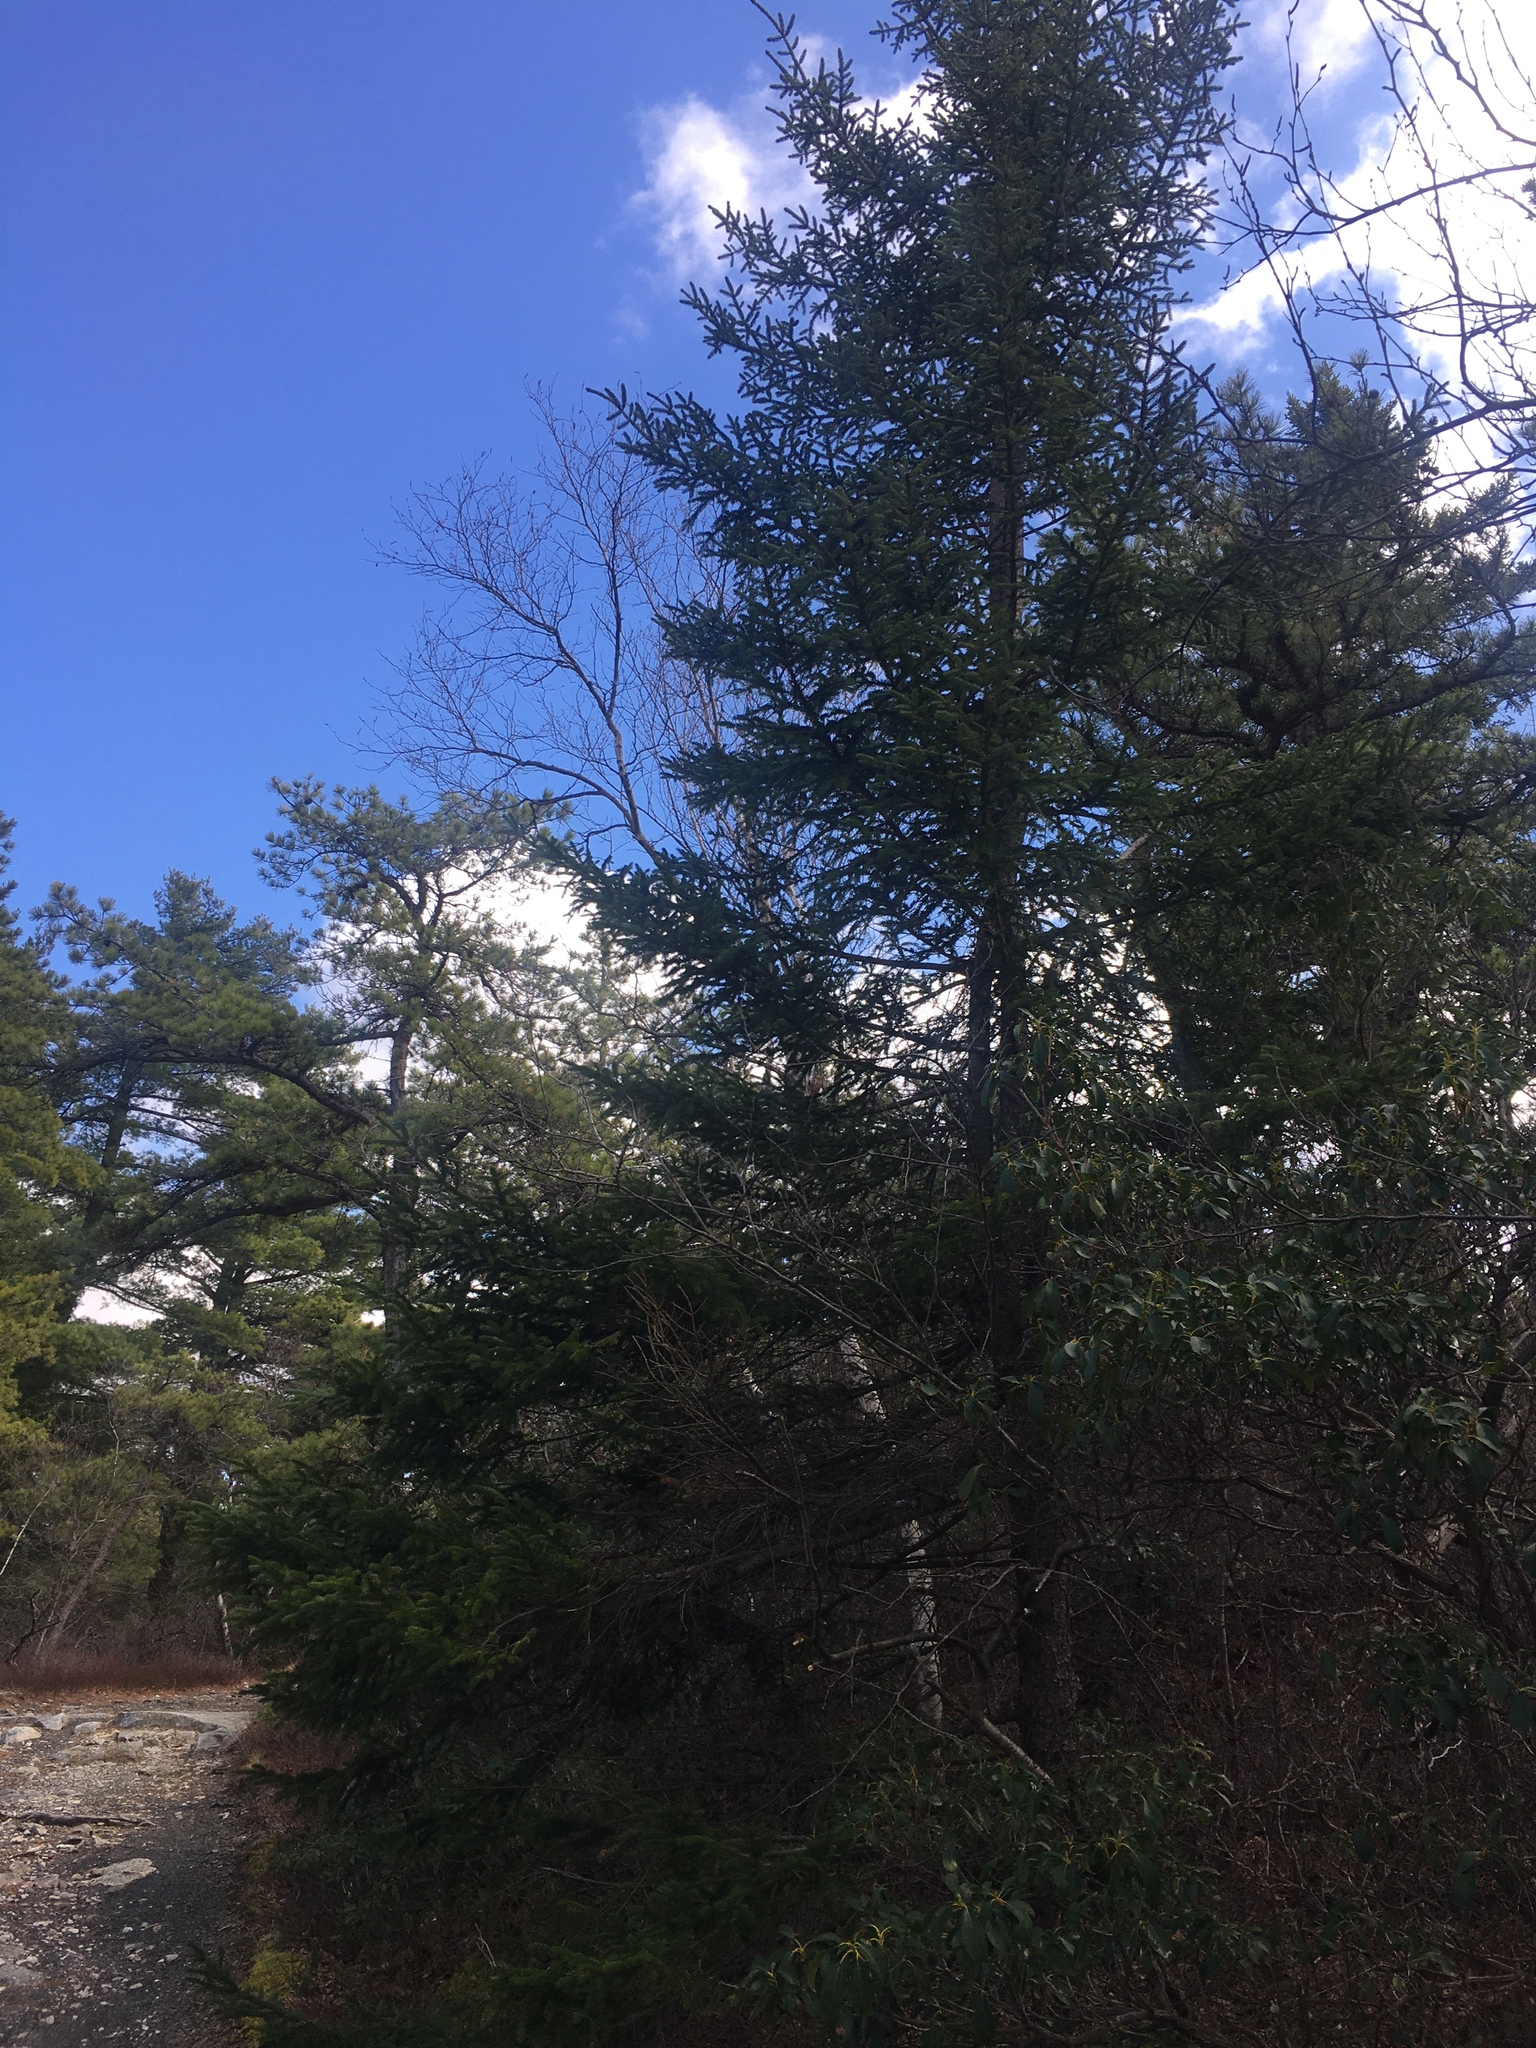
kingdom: Plantae
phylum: Tracheophyta
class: Pinopsida
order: Pinales
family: Pinaceae
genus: Picea
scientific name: Picea rubens
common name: Red spruce
